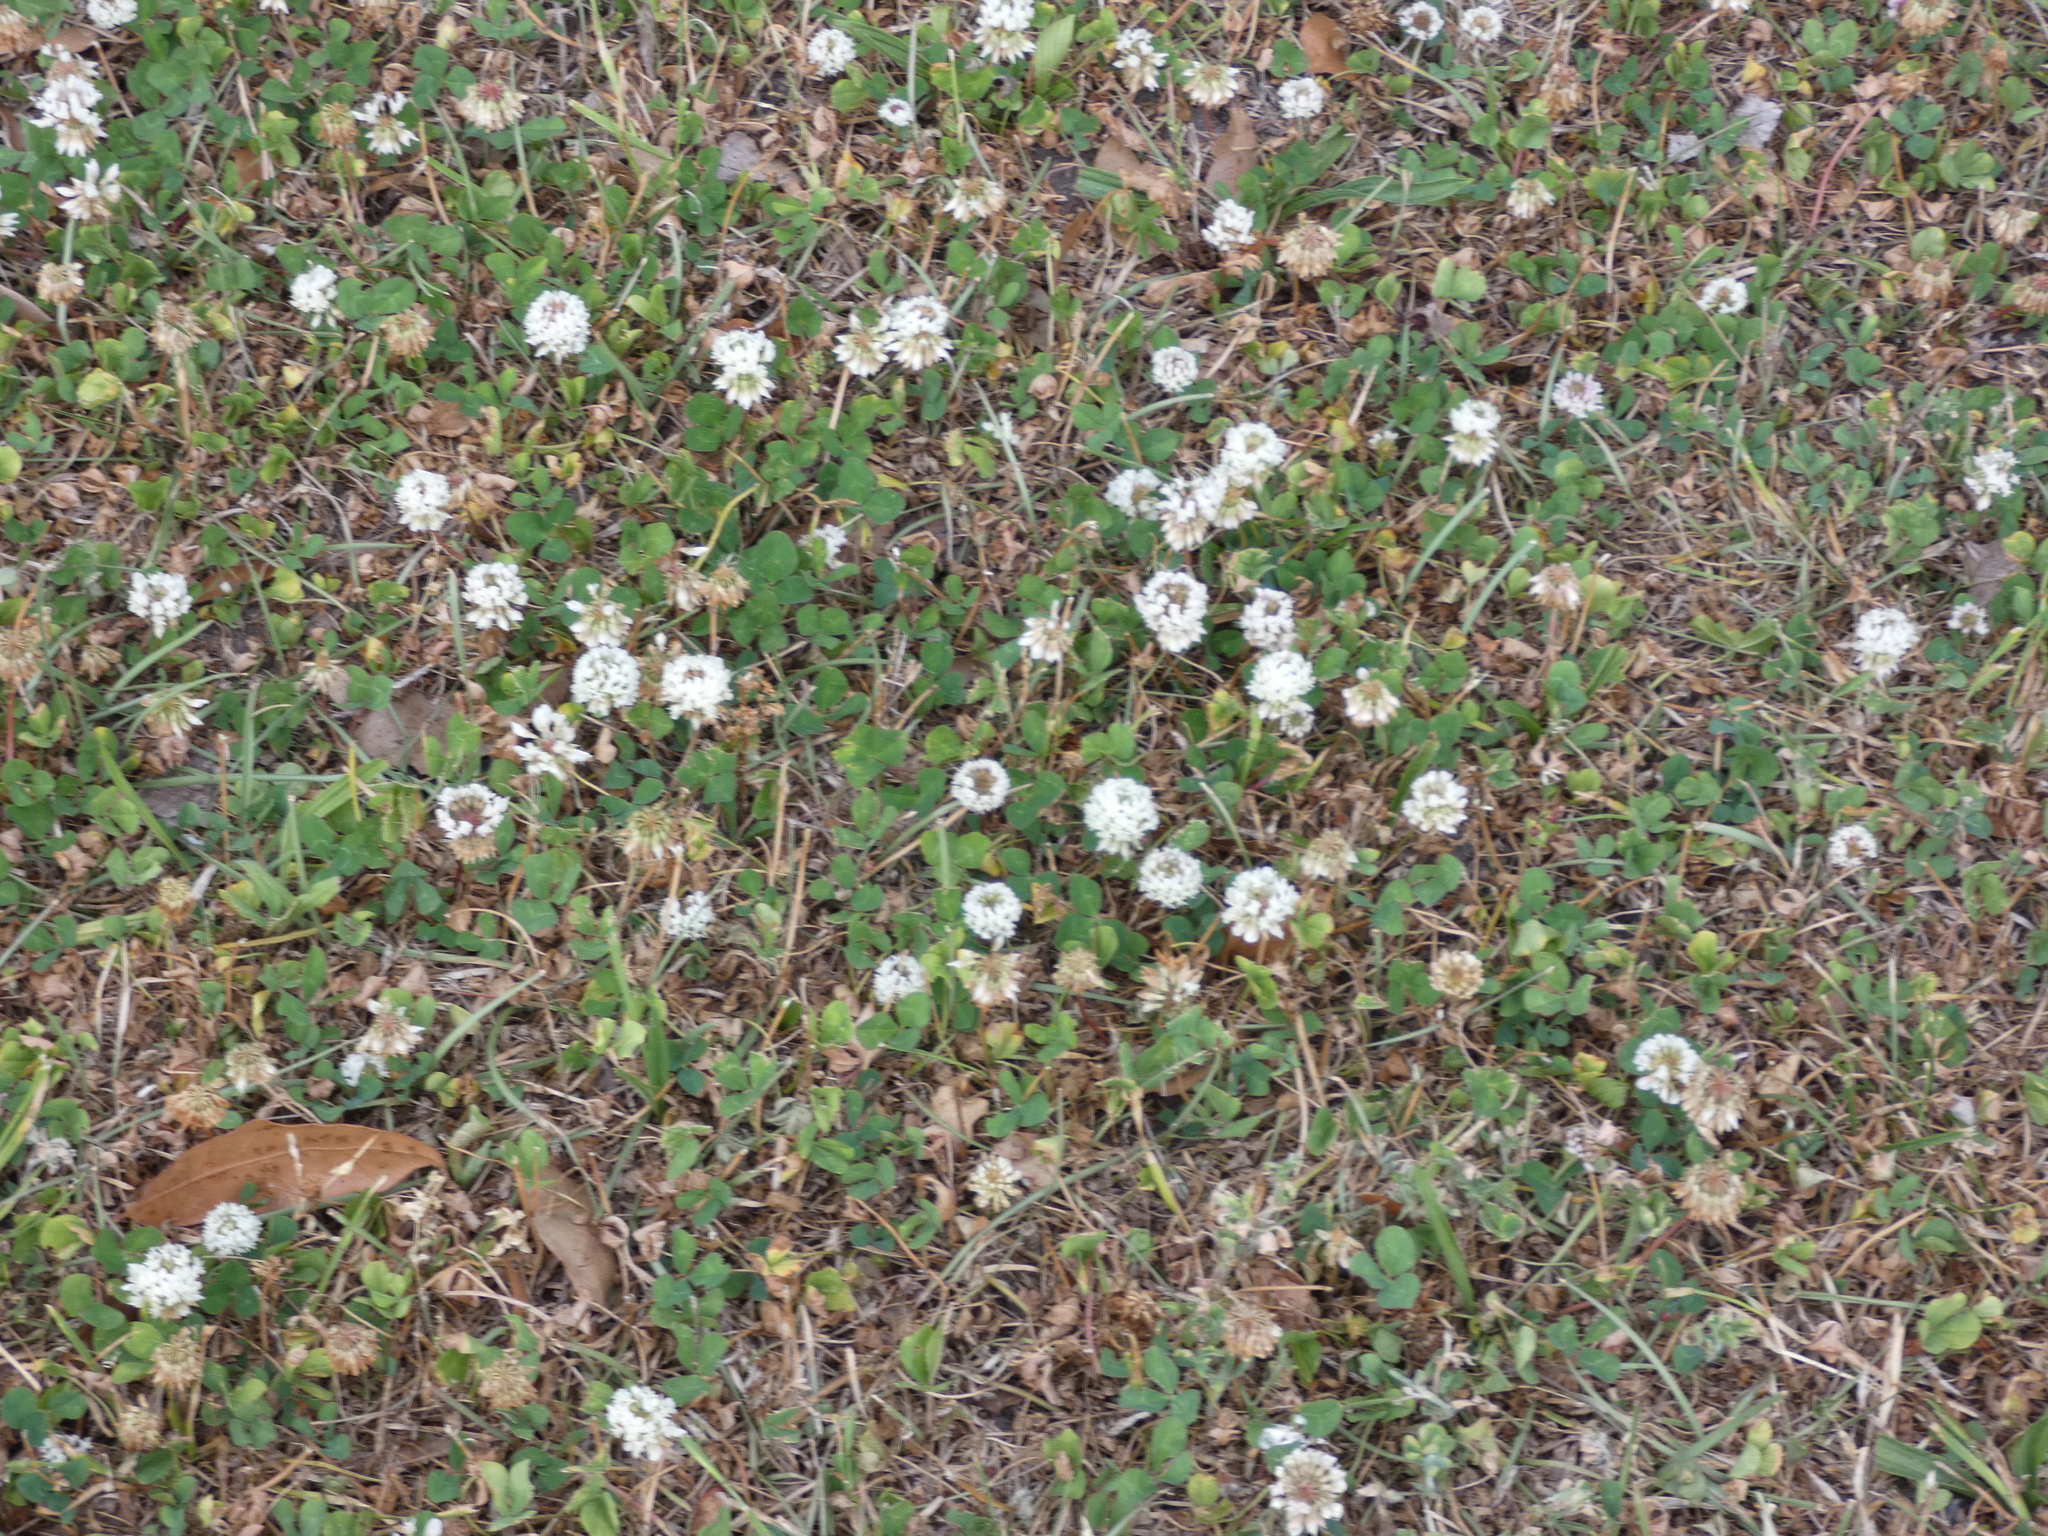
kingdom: Plantae
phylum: Tracheophyta
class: Magnoliopsida
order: Fabales
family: Fabaceae
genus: Trifolium
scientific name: Trifolium repens
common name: White clover
